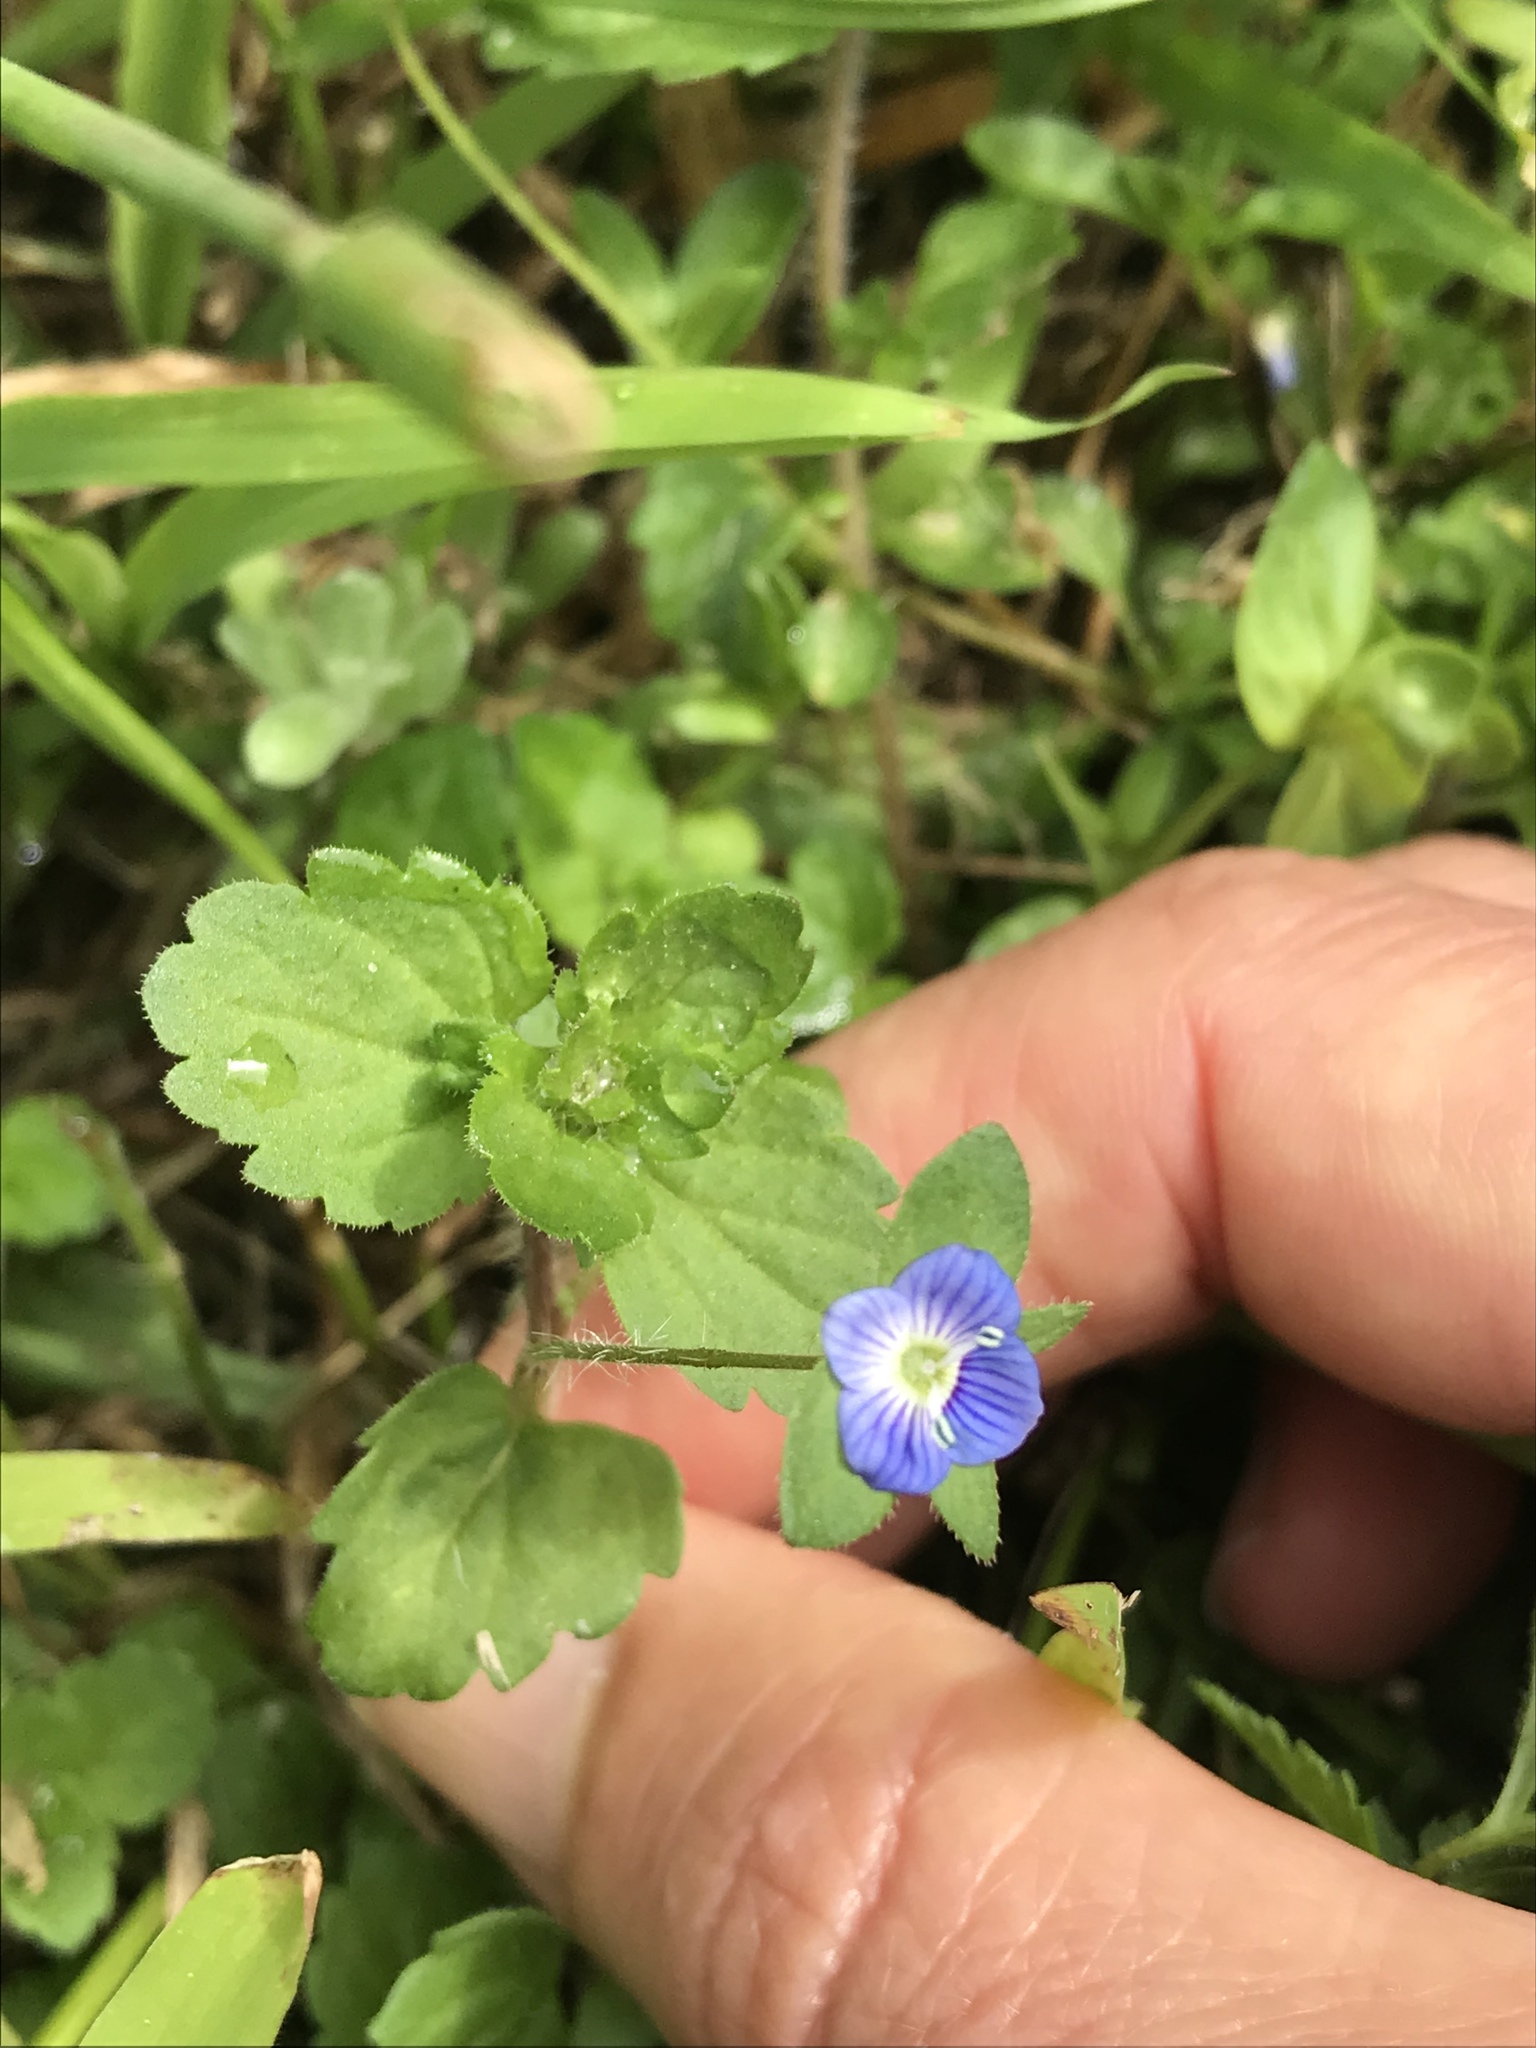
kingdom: Plantae
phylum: Tracheophyta
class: Magnoliopsida
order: Lamiales
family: Plantaginaceae
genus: Veronica
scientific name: Veronica persica
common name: Common field-speedwell
